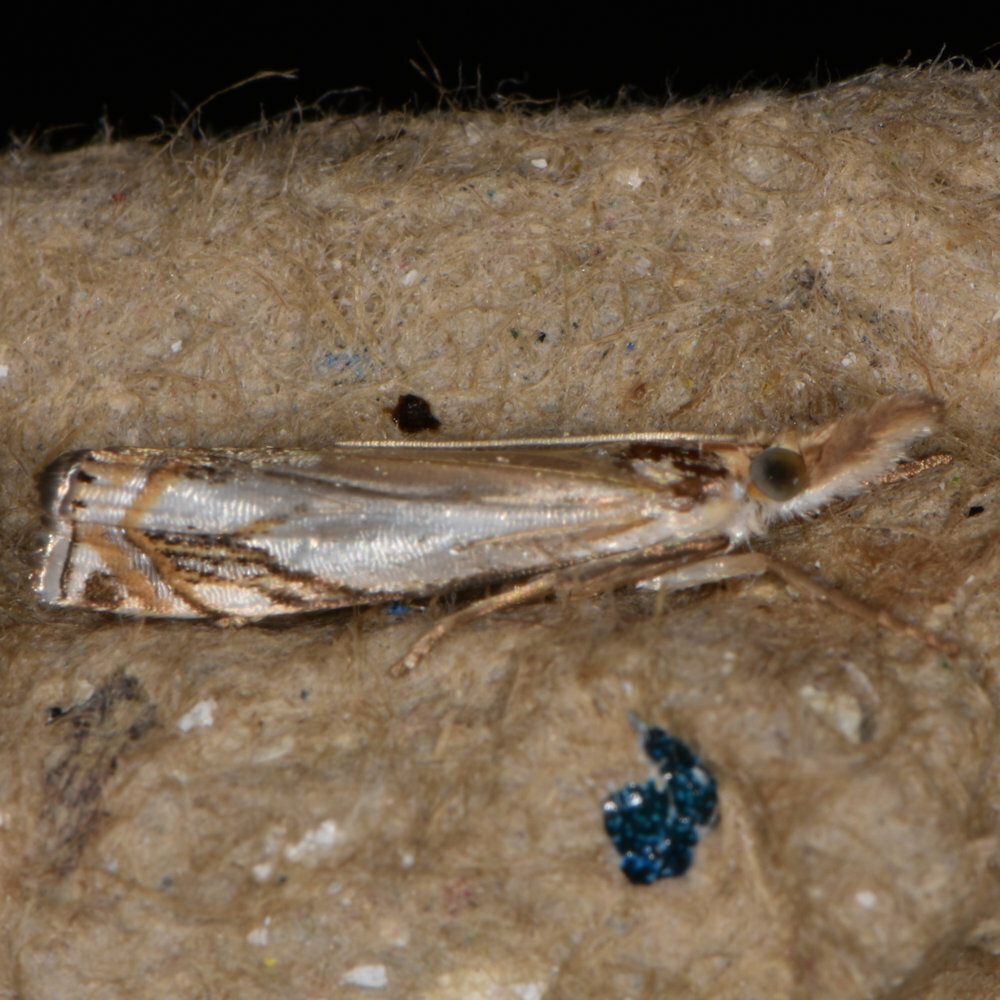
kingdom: Animalia
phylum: Arthropoda
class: Insecta
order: Lepidoptera
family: Crambidae
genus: Crambus
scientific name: Crambus agitatellus
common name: Double-banded grass-veneer
